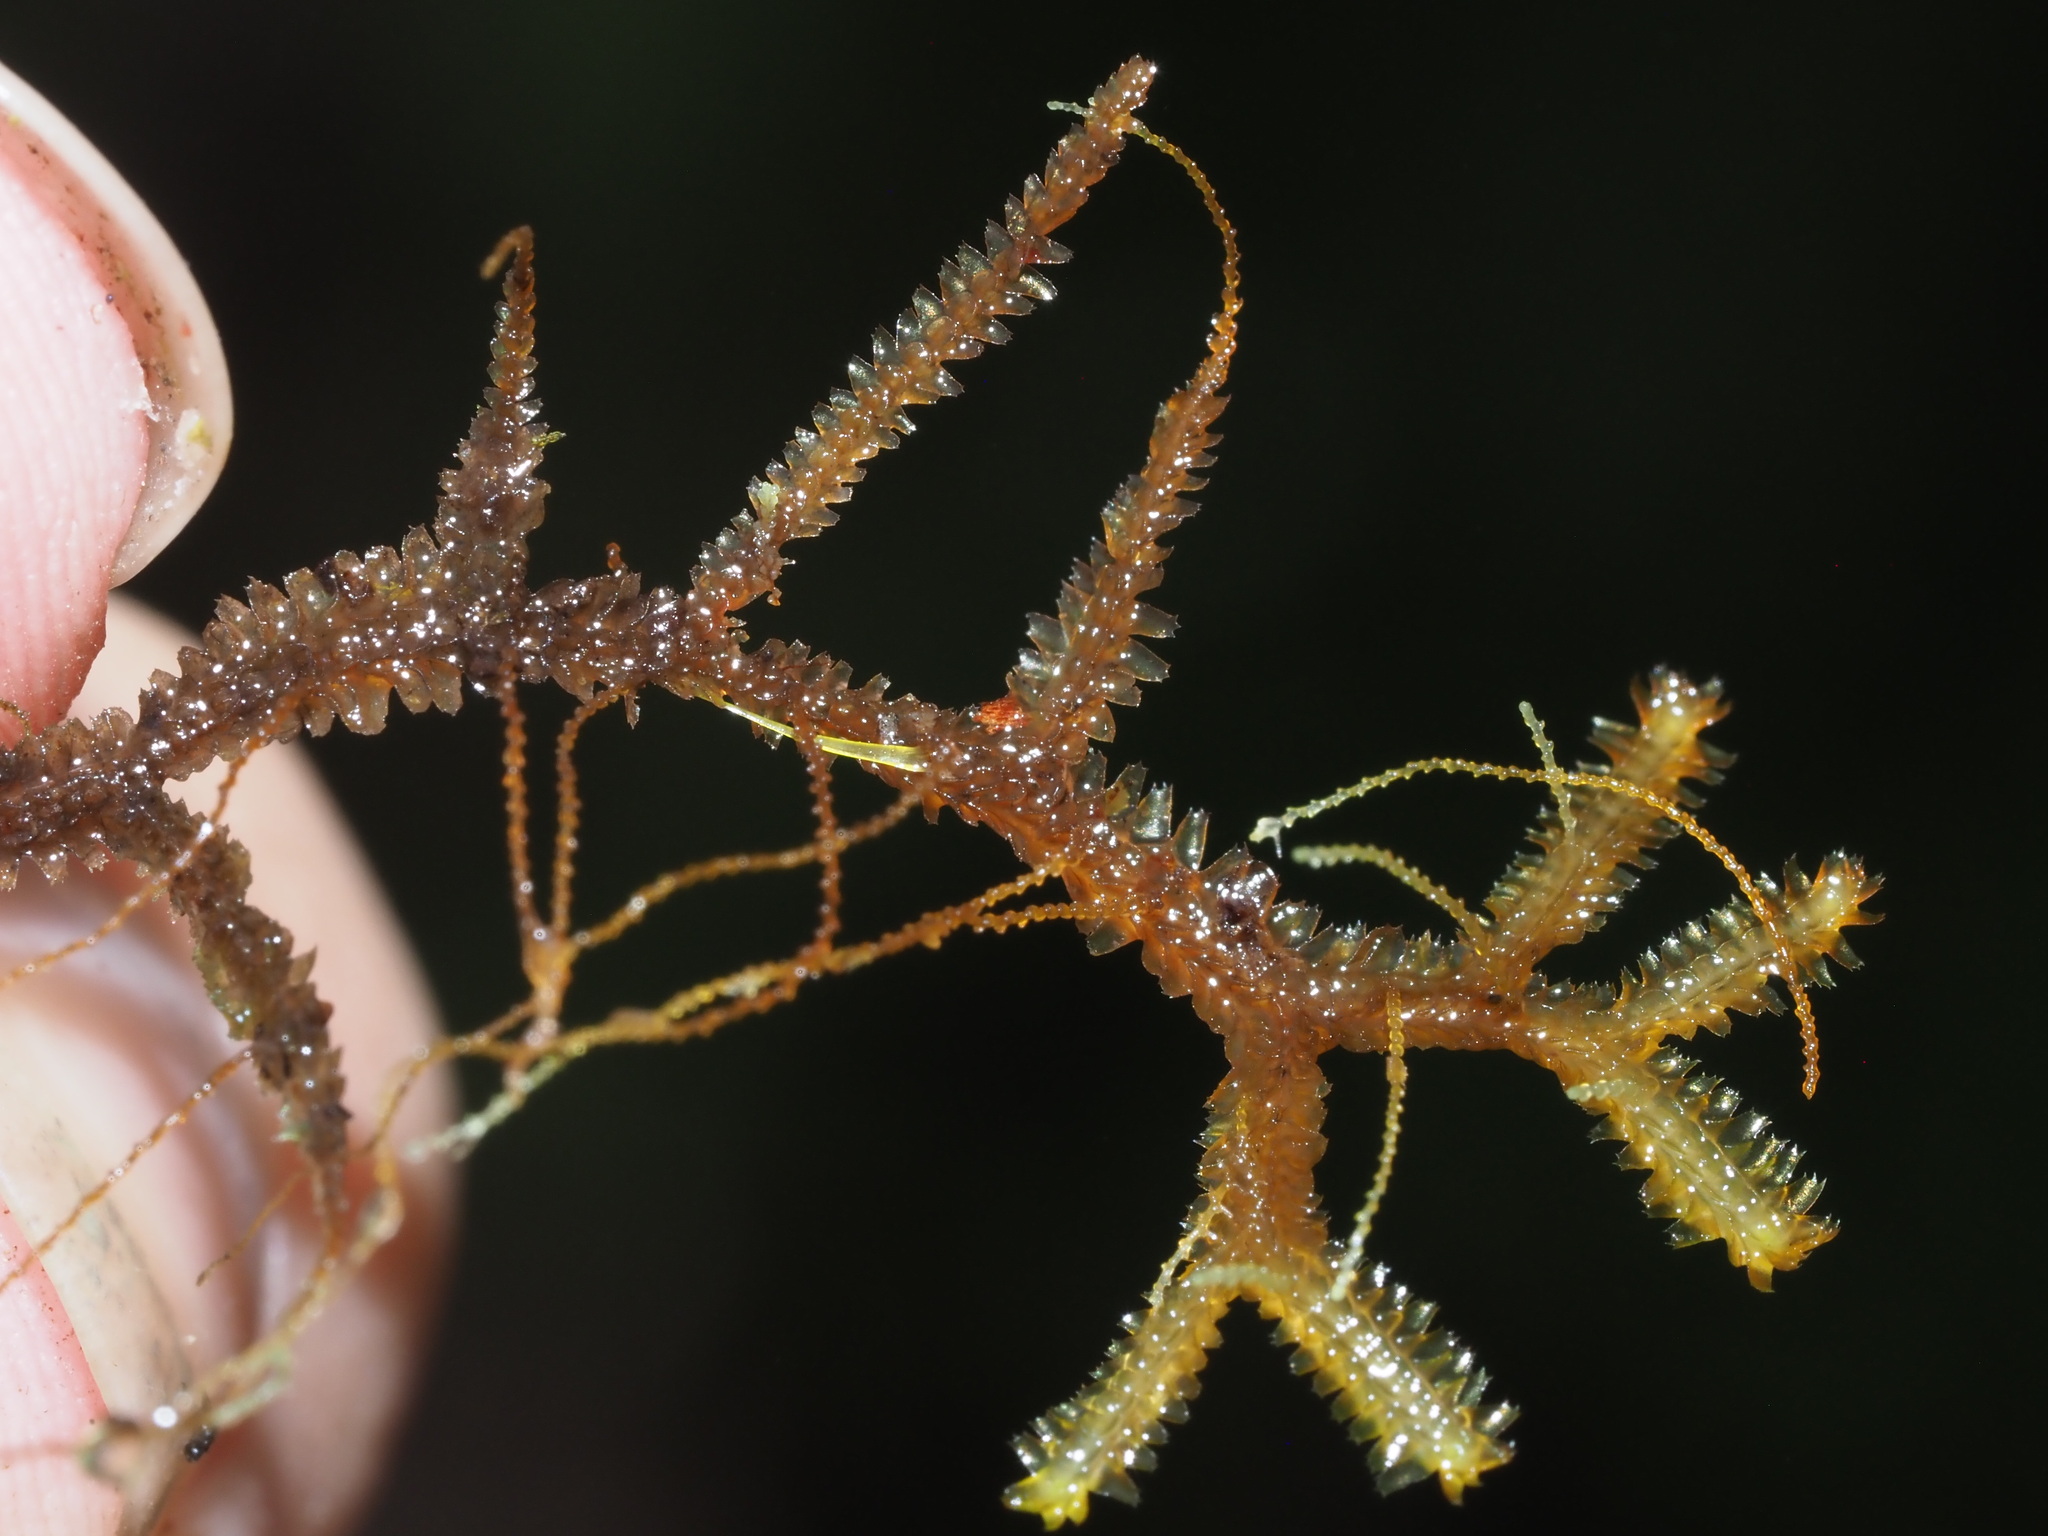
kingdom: Plantae
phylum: Marchantiophyta
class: Jungermanniopsida
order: Jungermanniales
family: Lepidoziaceae
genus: Bazzania
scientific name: Bazzania praerupta
